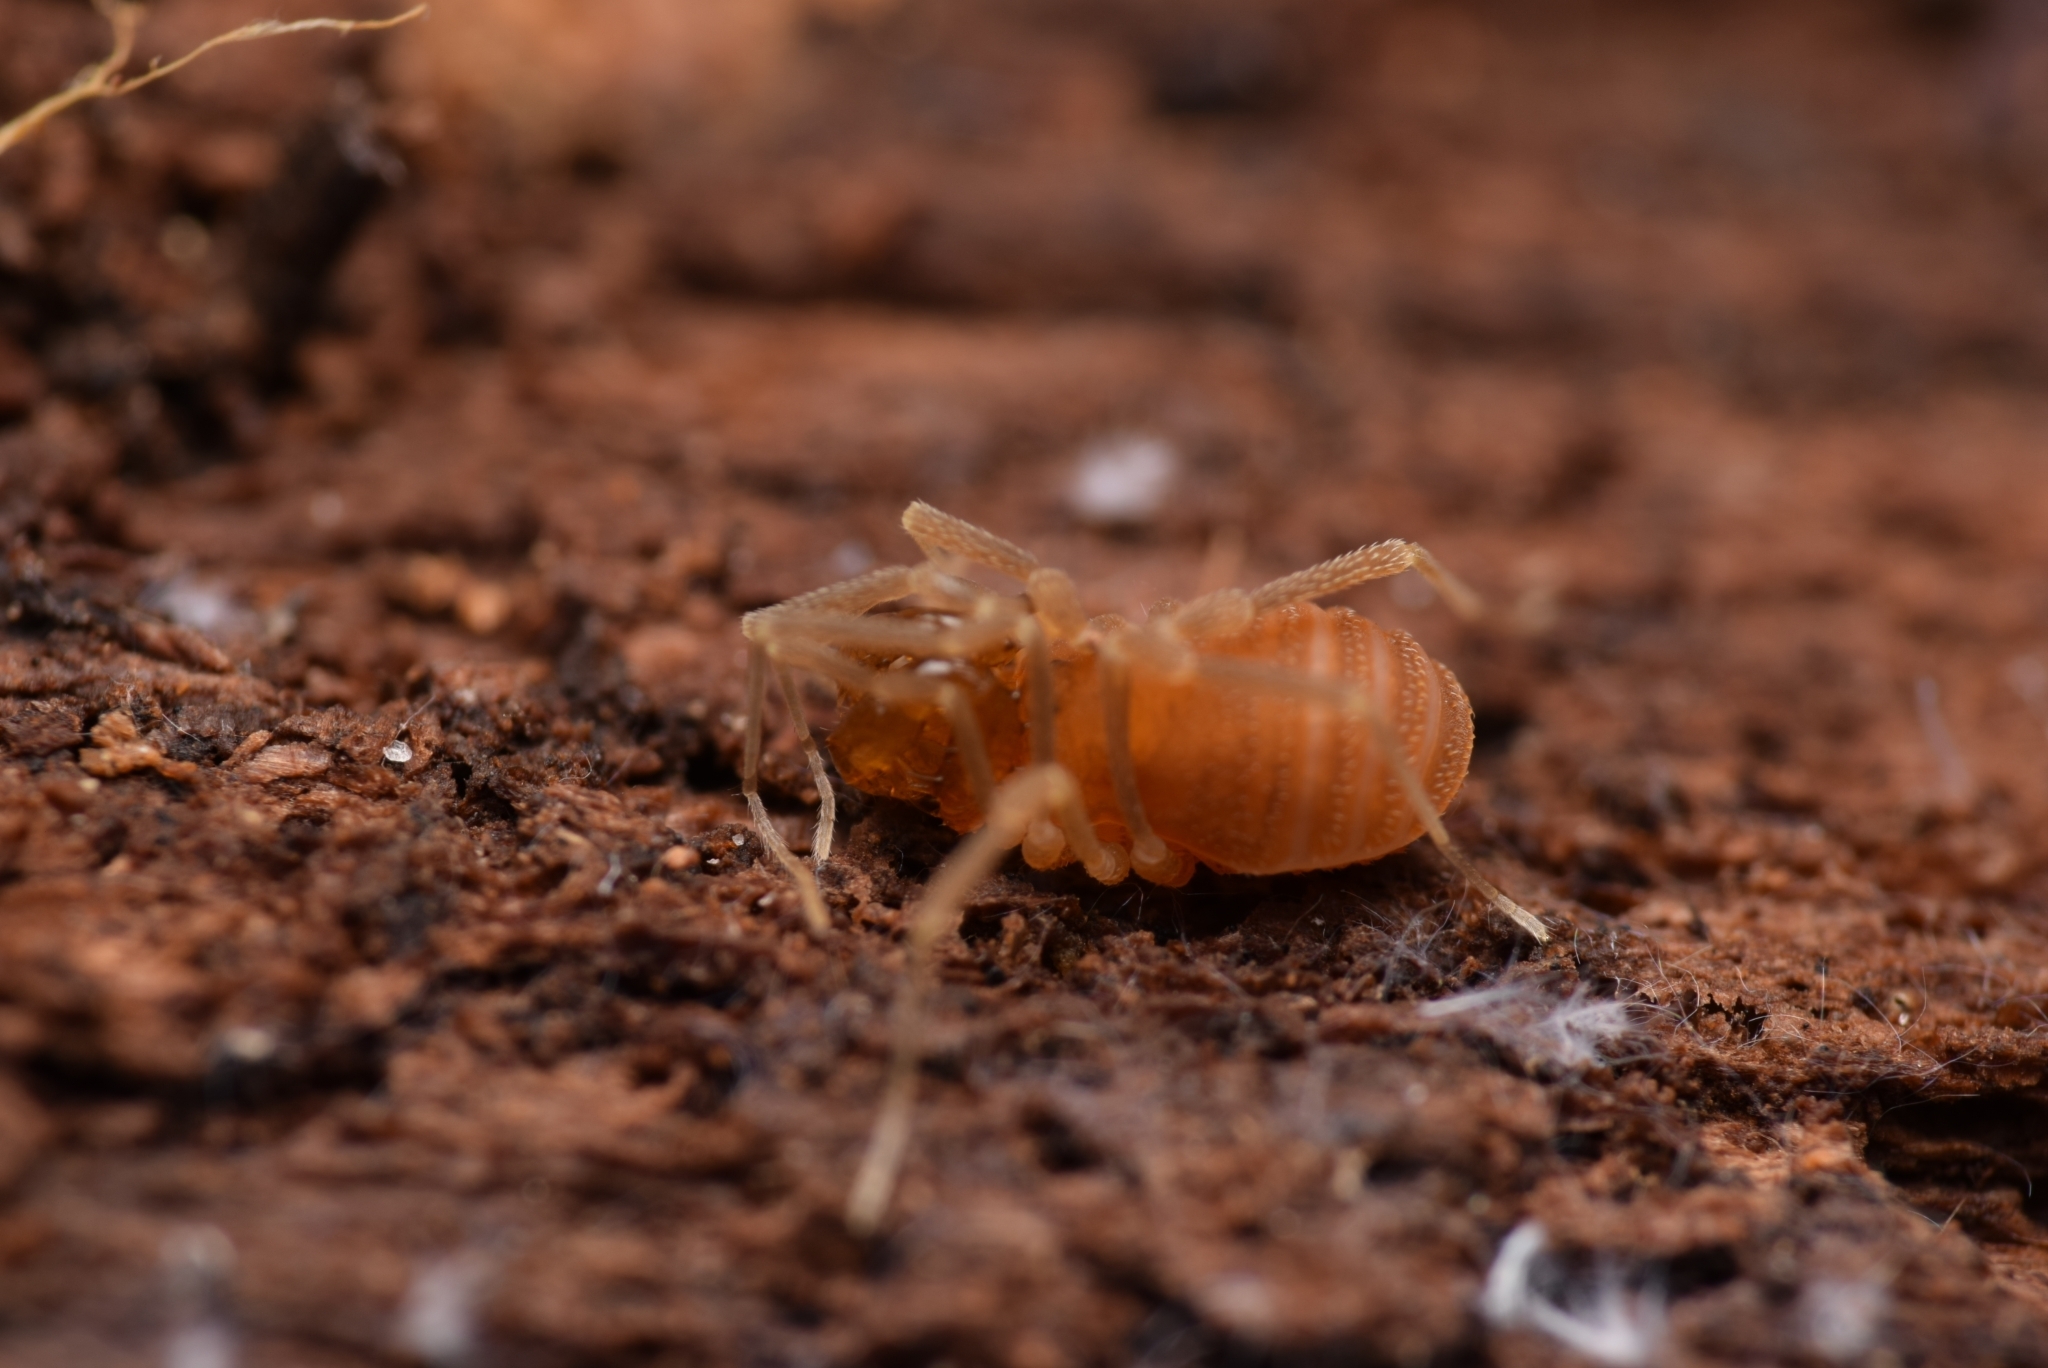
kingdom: Animalia
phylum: Arthropoda
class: Arachnida
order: Opiliones
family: Cladonychiidae
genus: Holoscotolemon
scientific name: Holoscotolemon querilhaci
